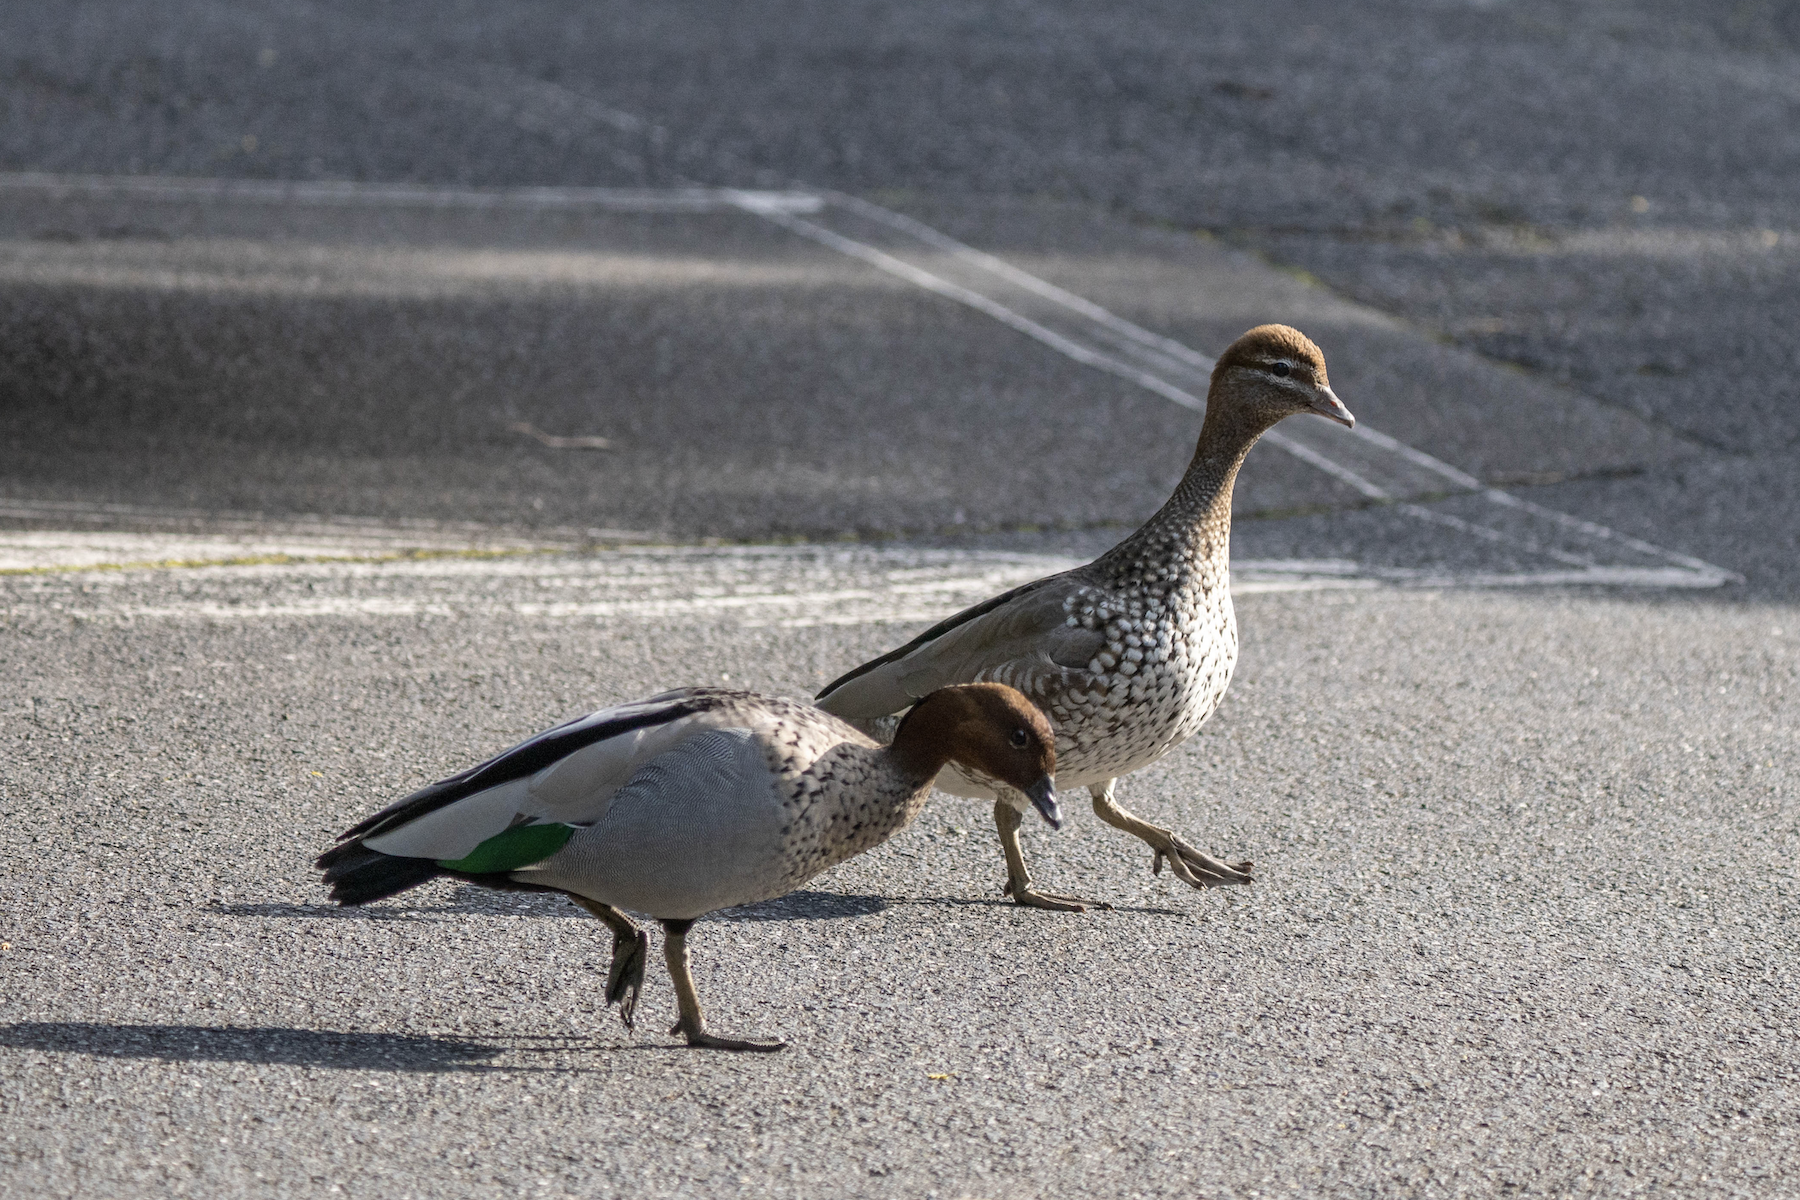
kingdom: Animalia
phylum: Chordata
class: Aves
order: Anseriformes
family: Anatidae
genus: Chenonetta
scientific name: Chenonetta jubata
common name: Maned duck
